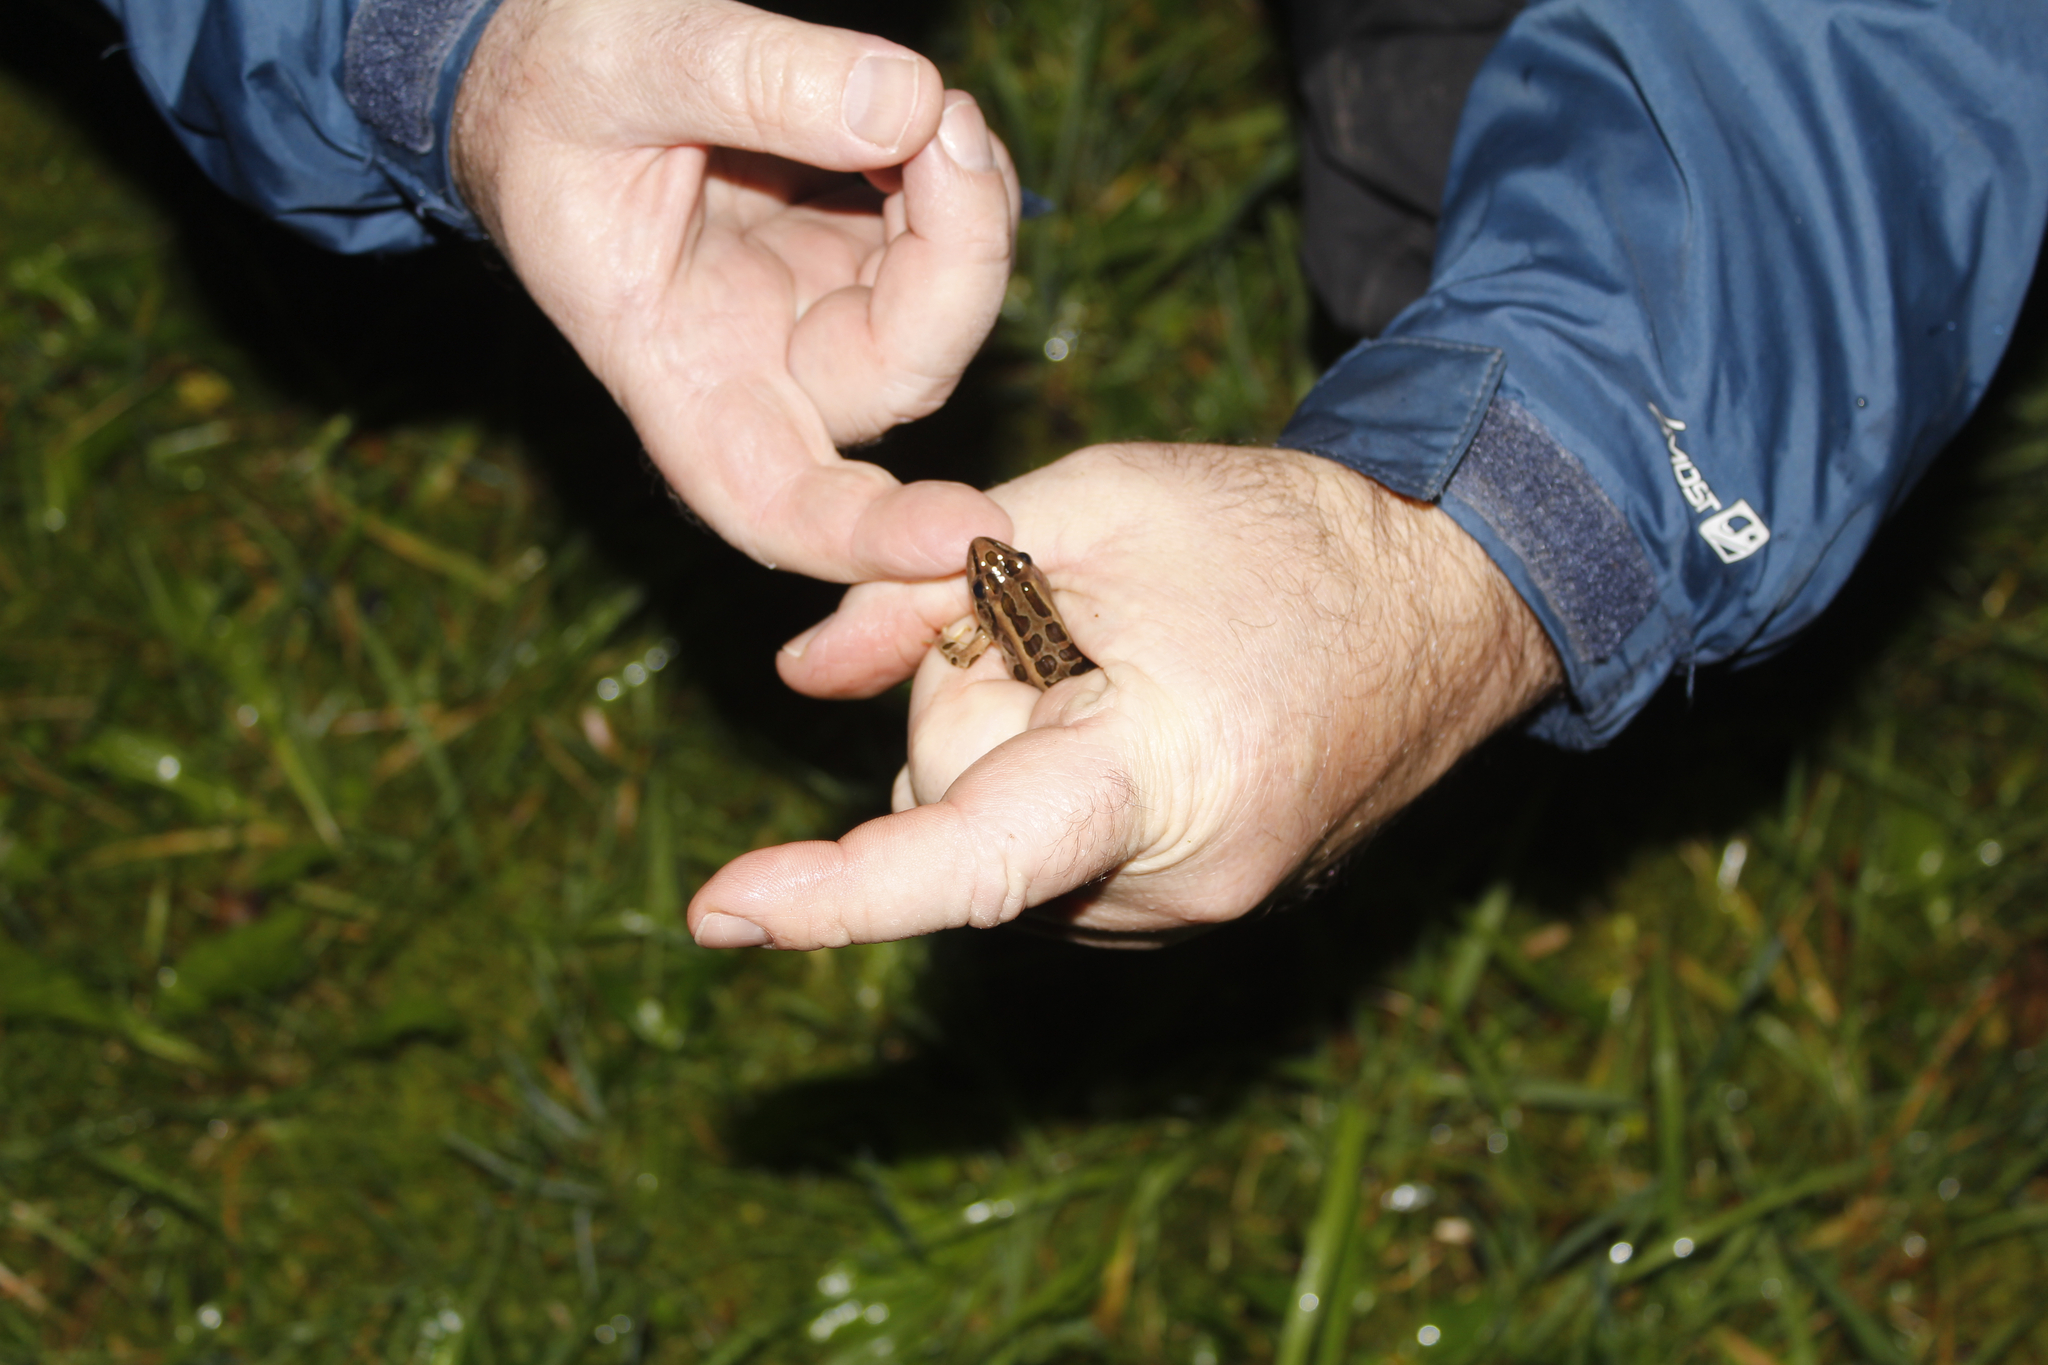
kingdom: Animalia
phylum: Chordata
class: Amphibia
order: Anura
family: Ranidae
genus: Lithobates
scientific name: Lithobates palustris
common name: Pickerel frog
